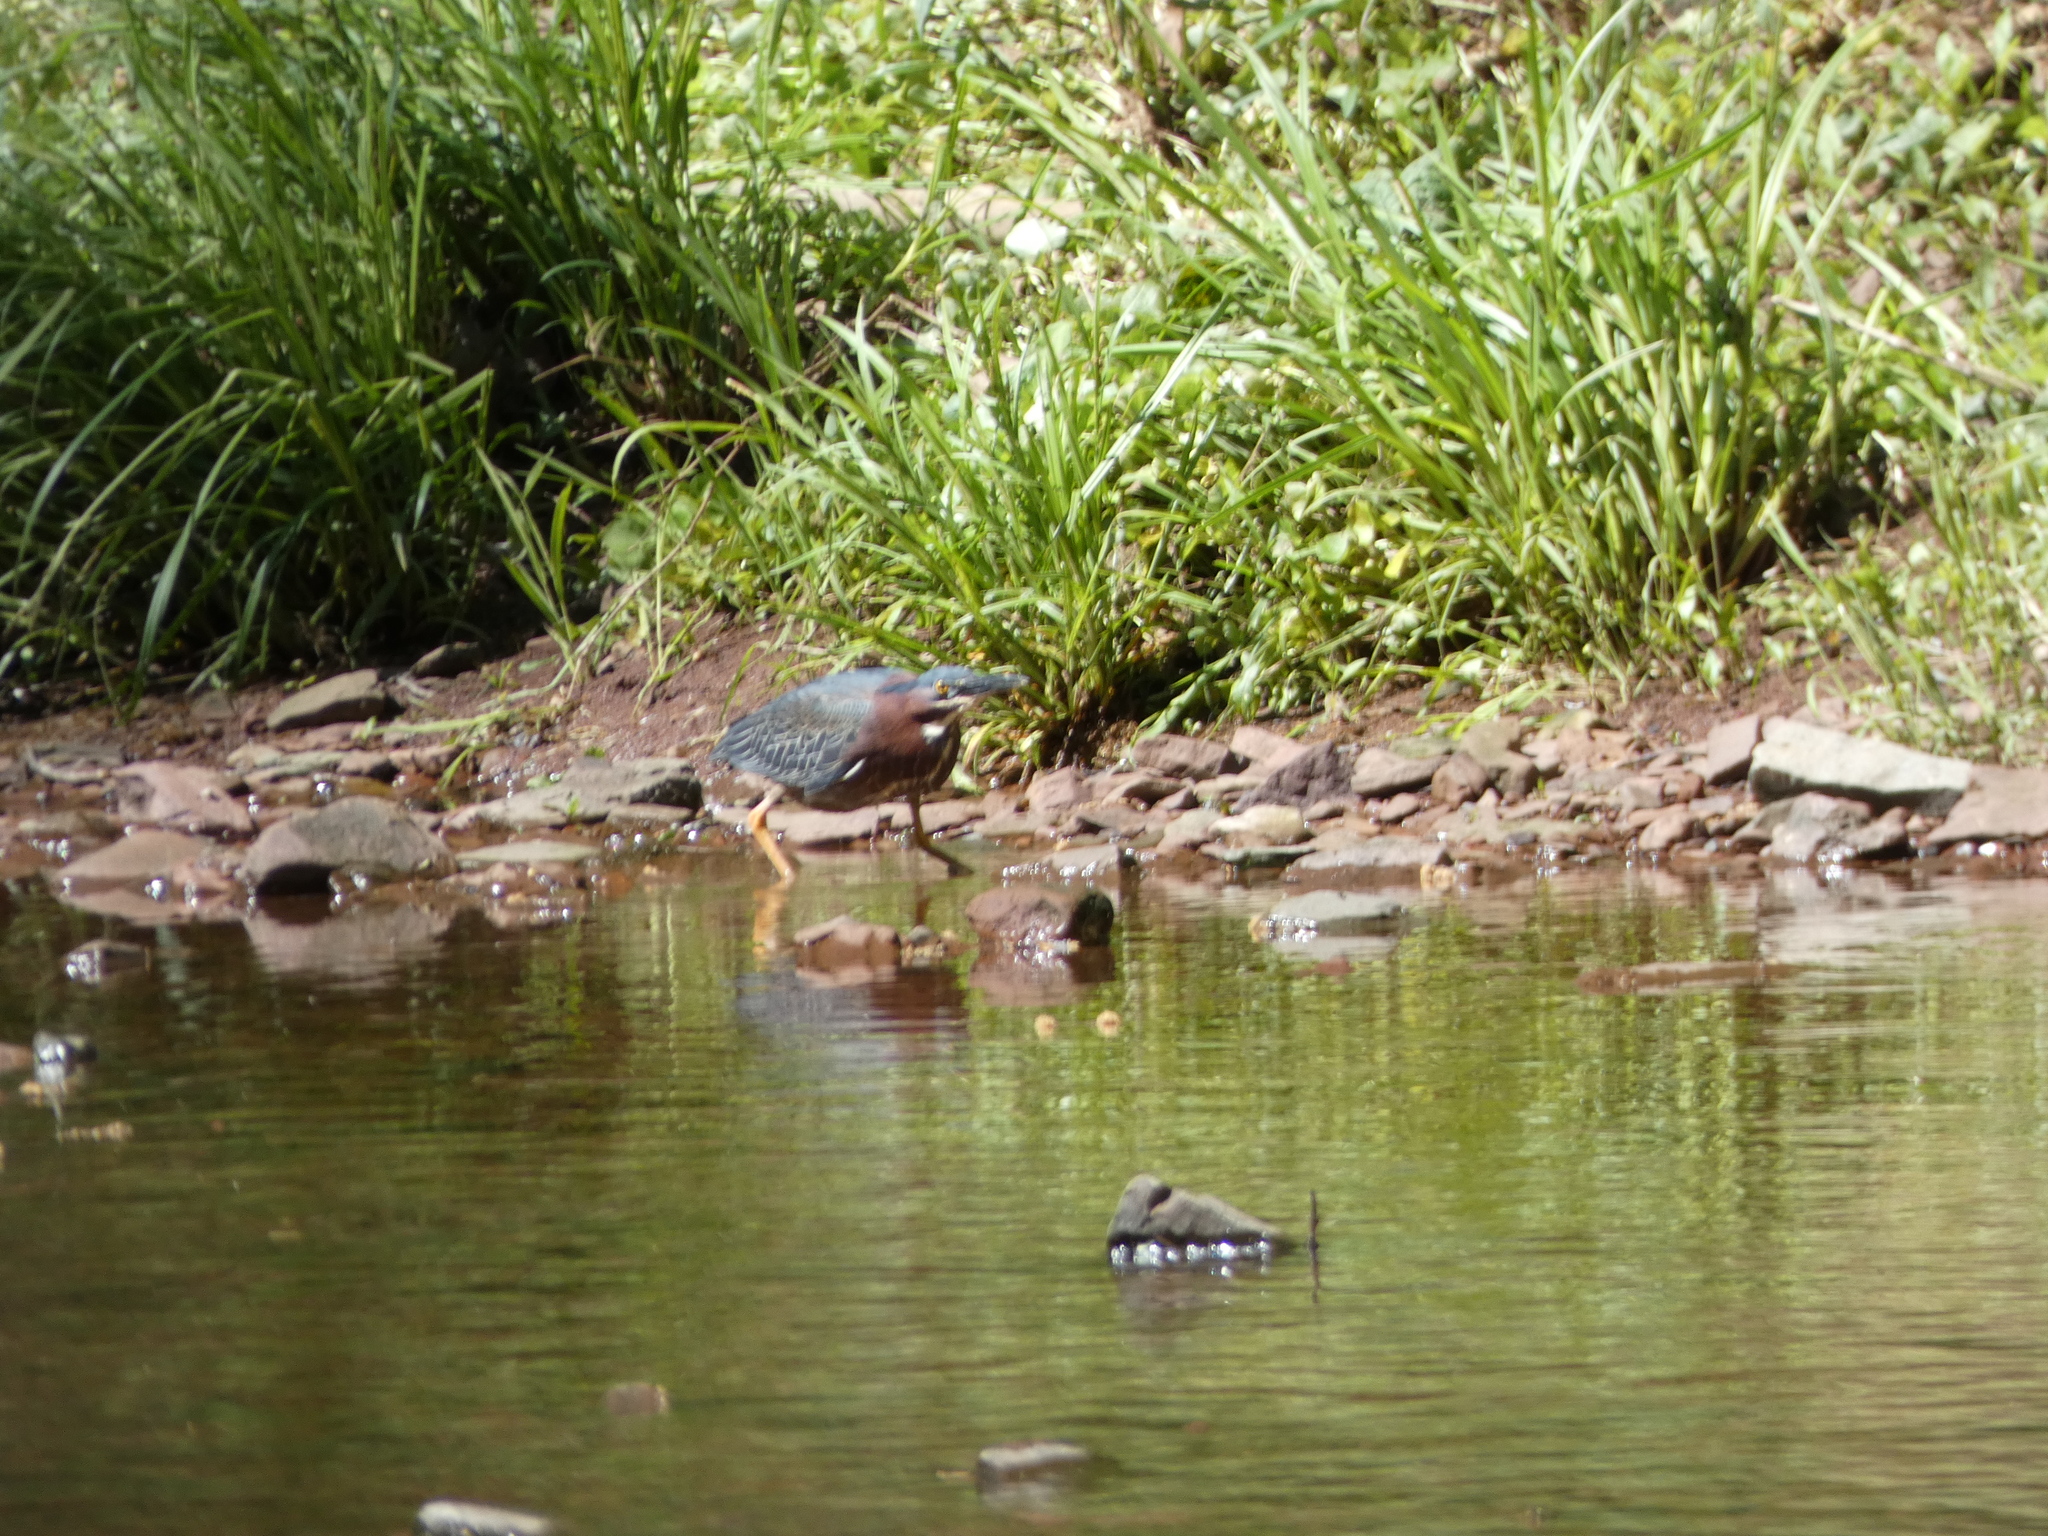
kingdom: Animalia
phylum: Chordata
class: Aves
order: Pelecaniformes
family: Ardeidae
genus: Butorides
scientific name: Butorides virescens
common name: Green heron
